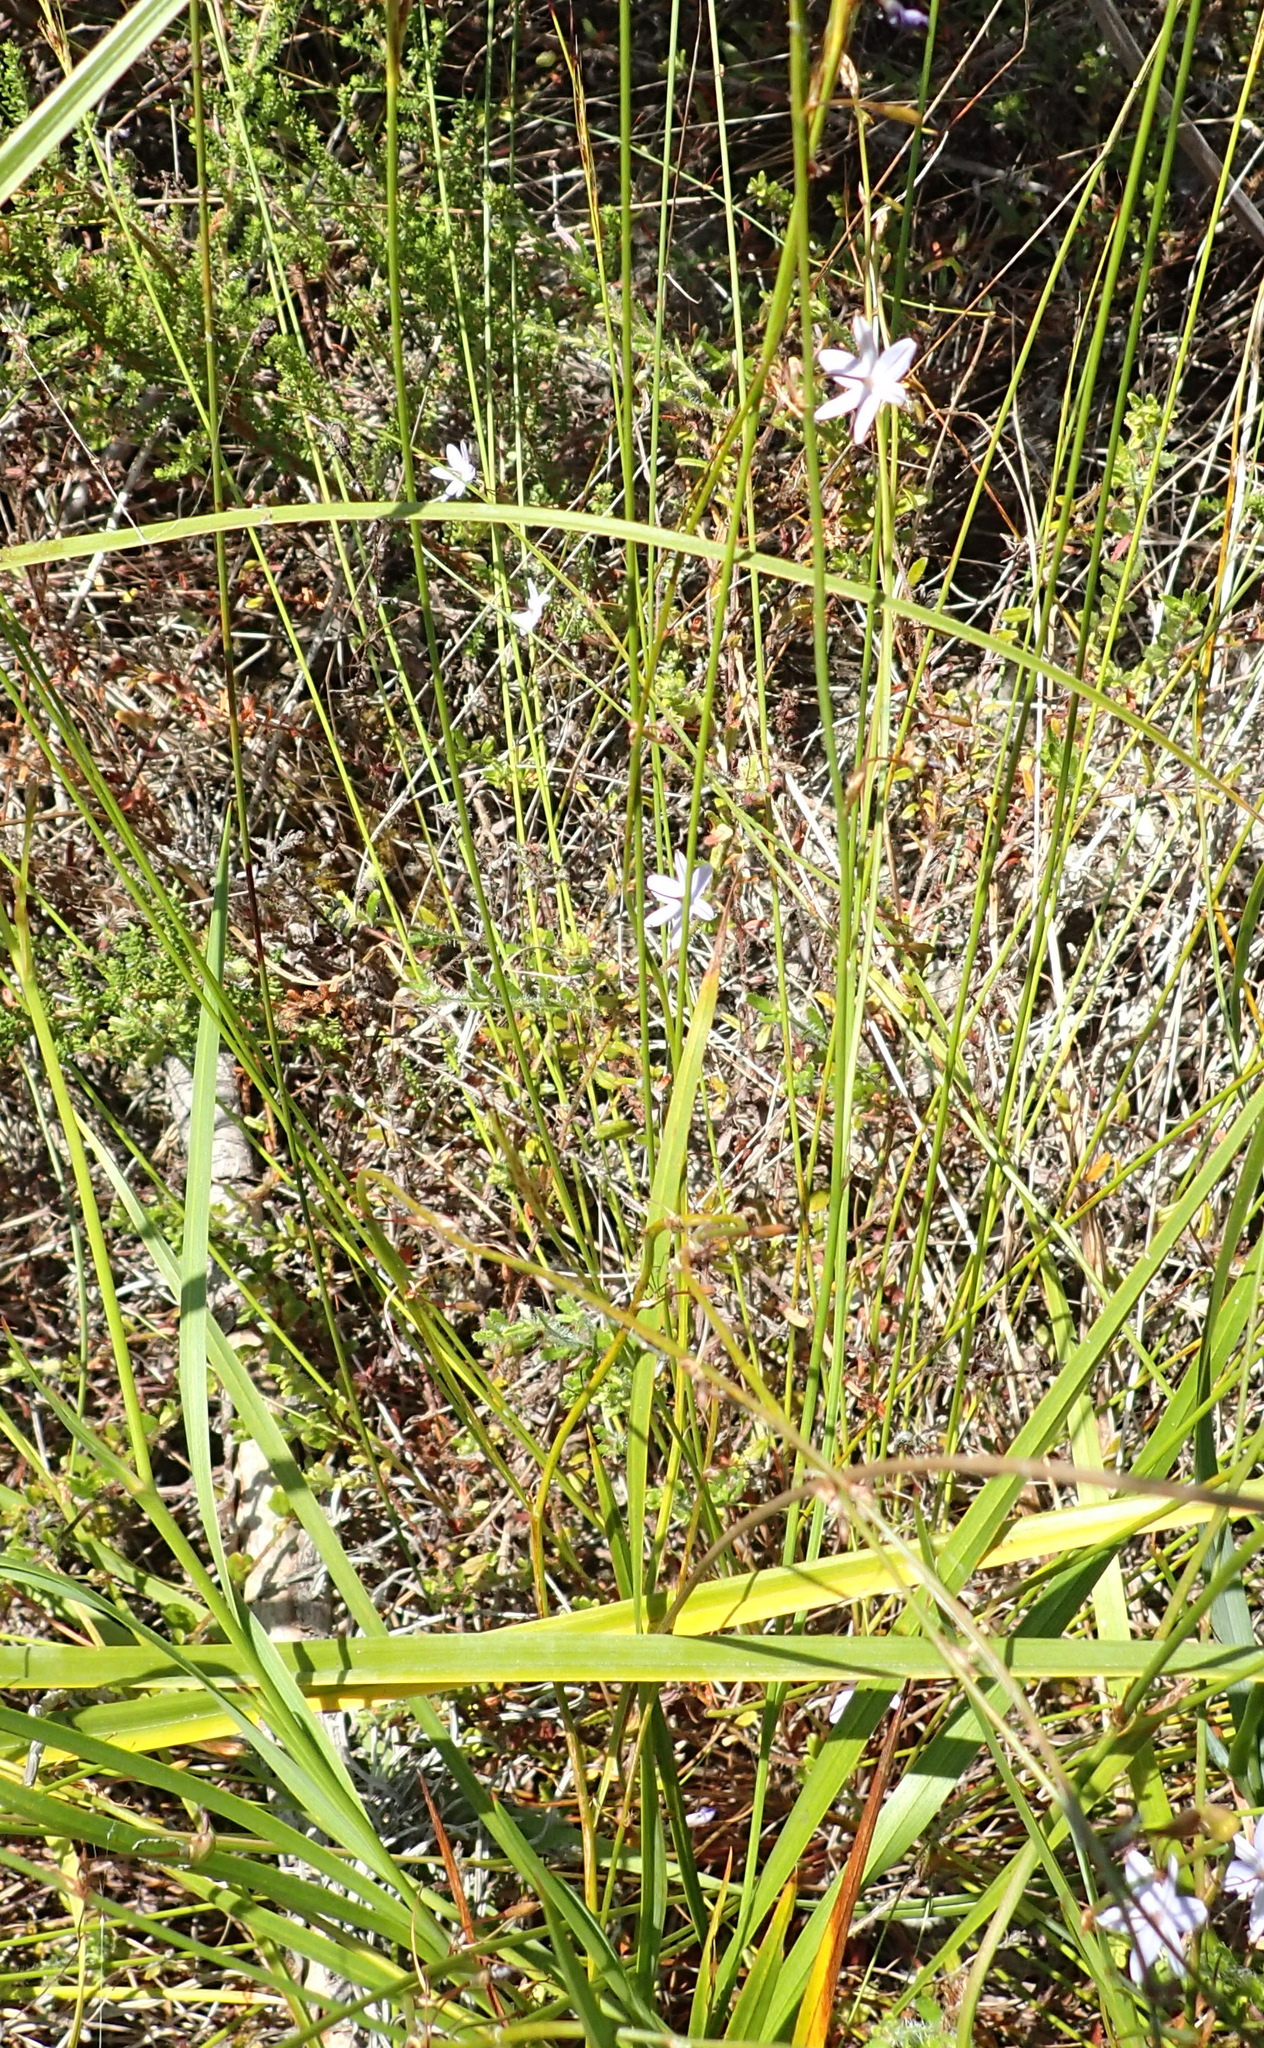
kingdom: Plantae
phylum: Tracheophyta
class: Liliopsida
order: Asparagales
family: Asphodelaceae
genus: Caesia
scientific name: Caesia contorta
